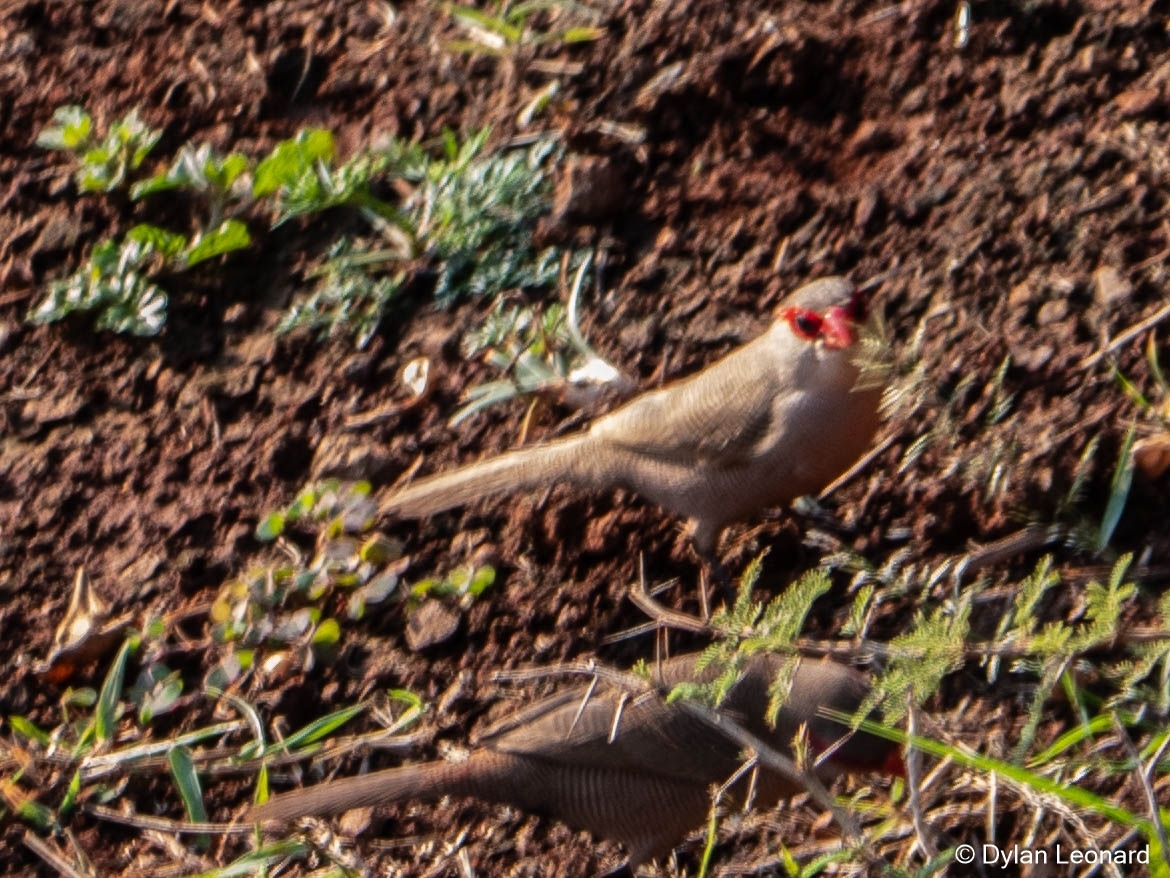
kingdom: Animalia
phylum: Chordata
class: Aves
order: Passeriformes
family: Estrildidae
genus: Estrilda
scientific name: Estrilda astrild
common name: Common waxbill
